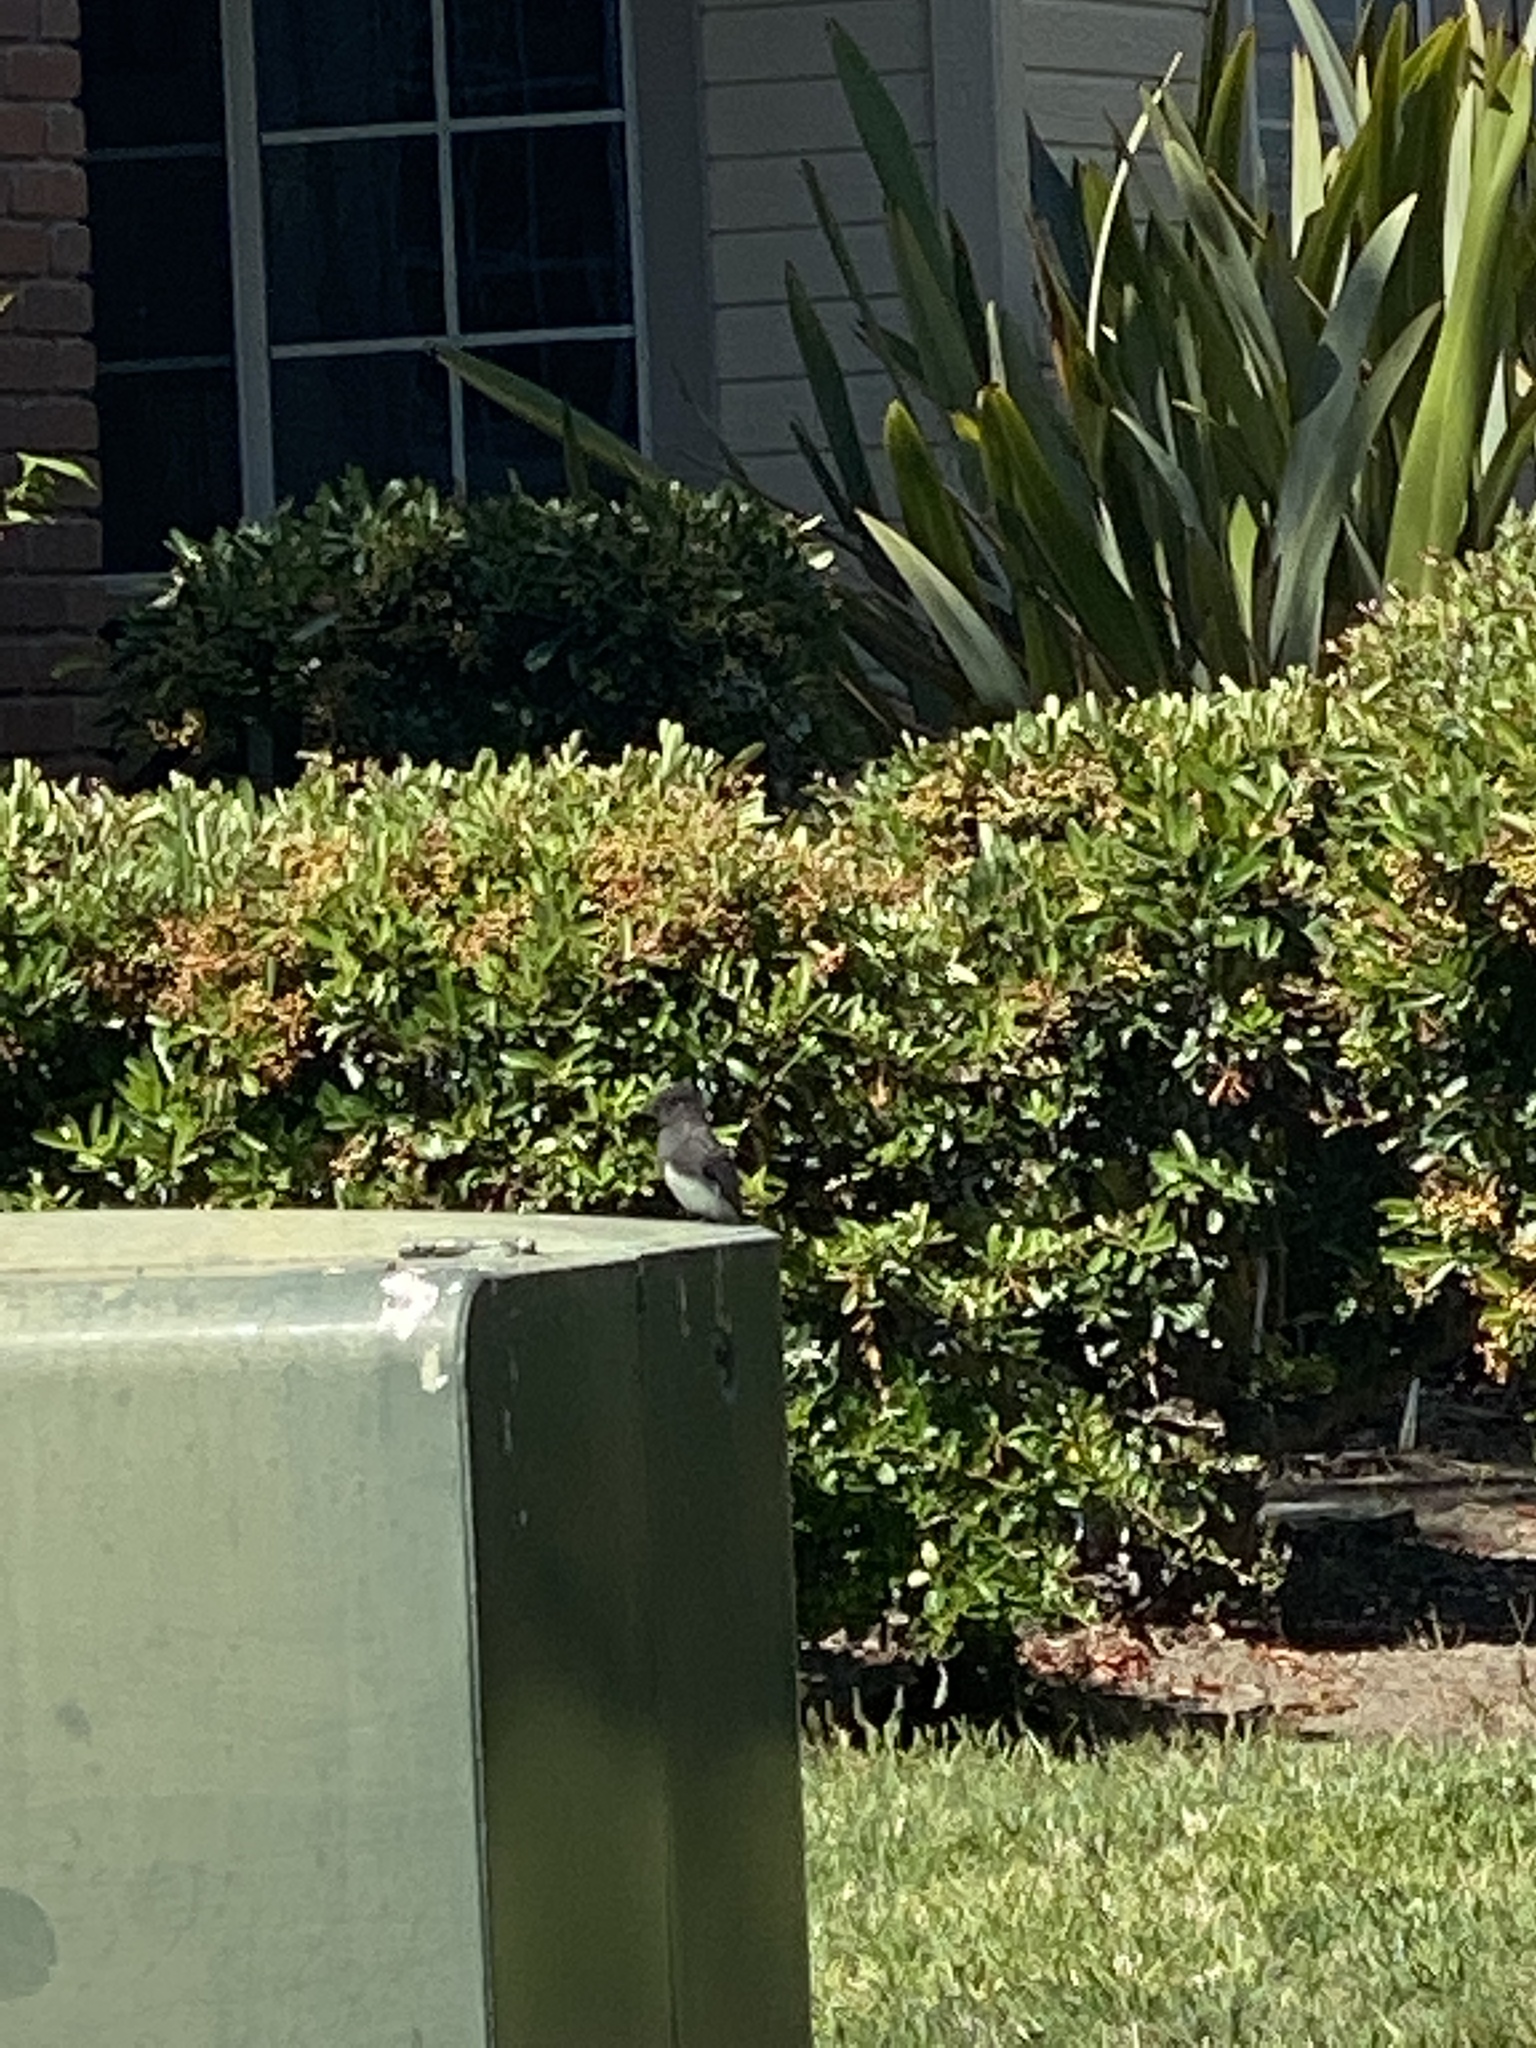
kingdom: Animalia
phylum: Chordata
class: Aves
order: Passeriformes
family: Tyrannidae
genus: Sayornis
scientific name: Sayornis nigricans
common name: Black phoebe
